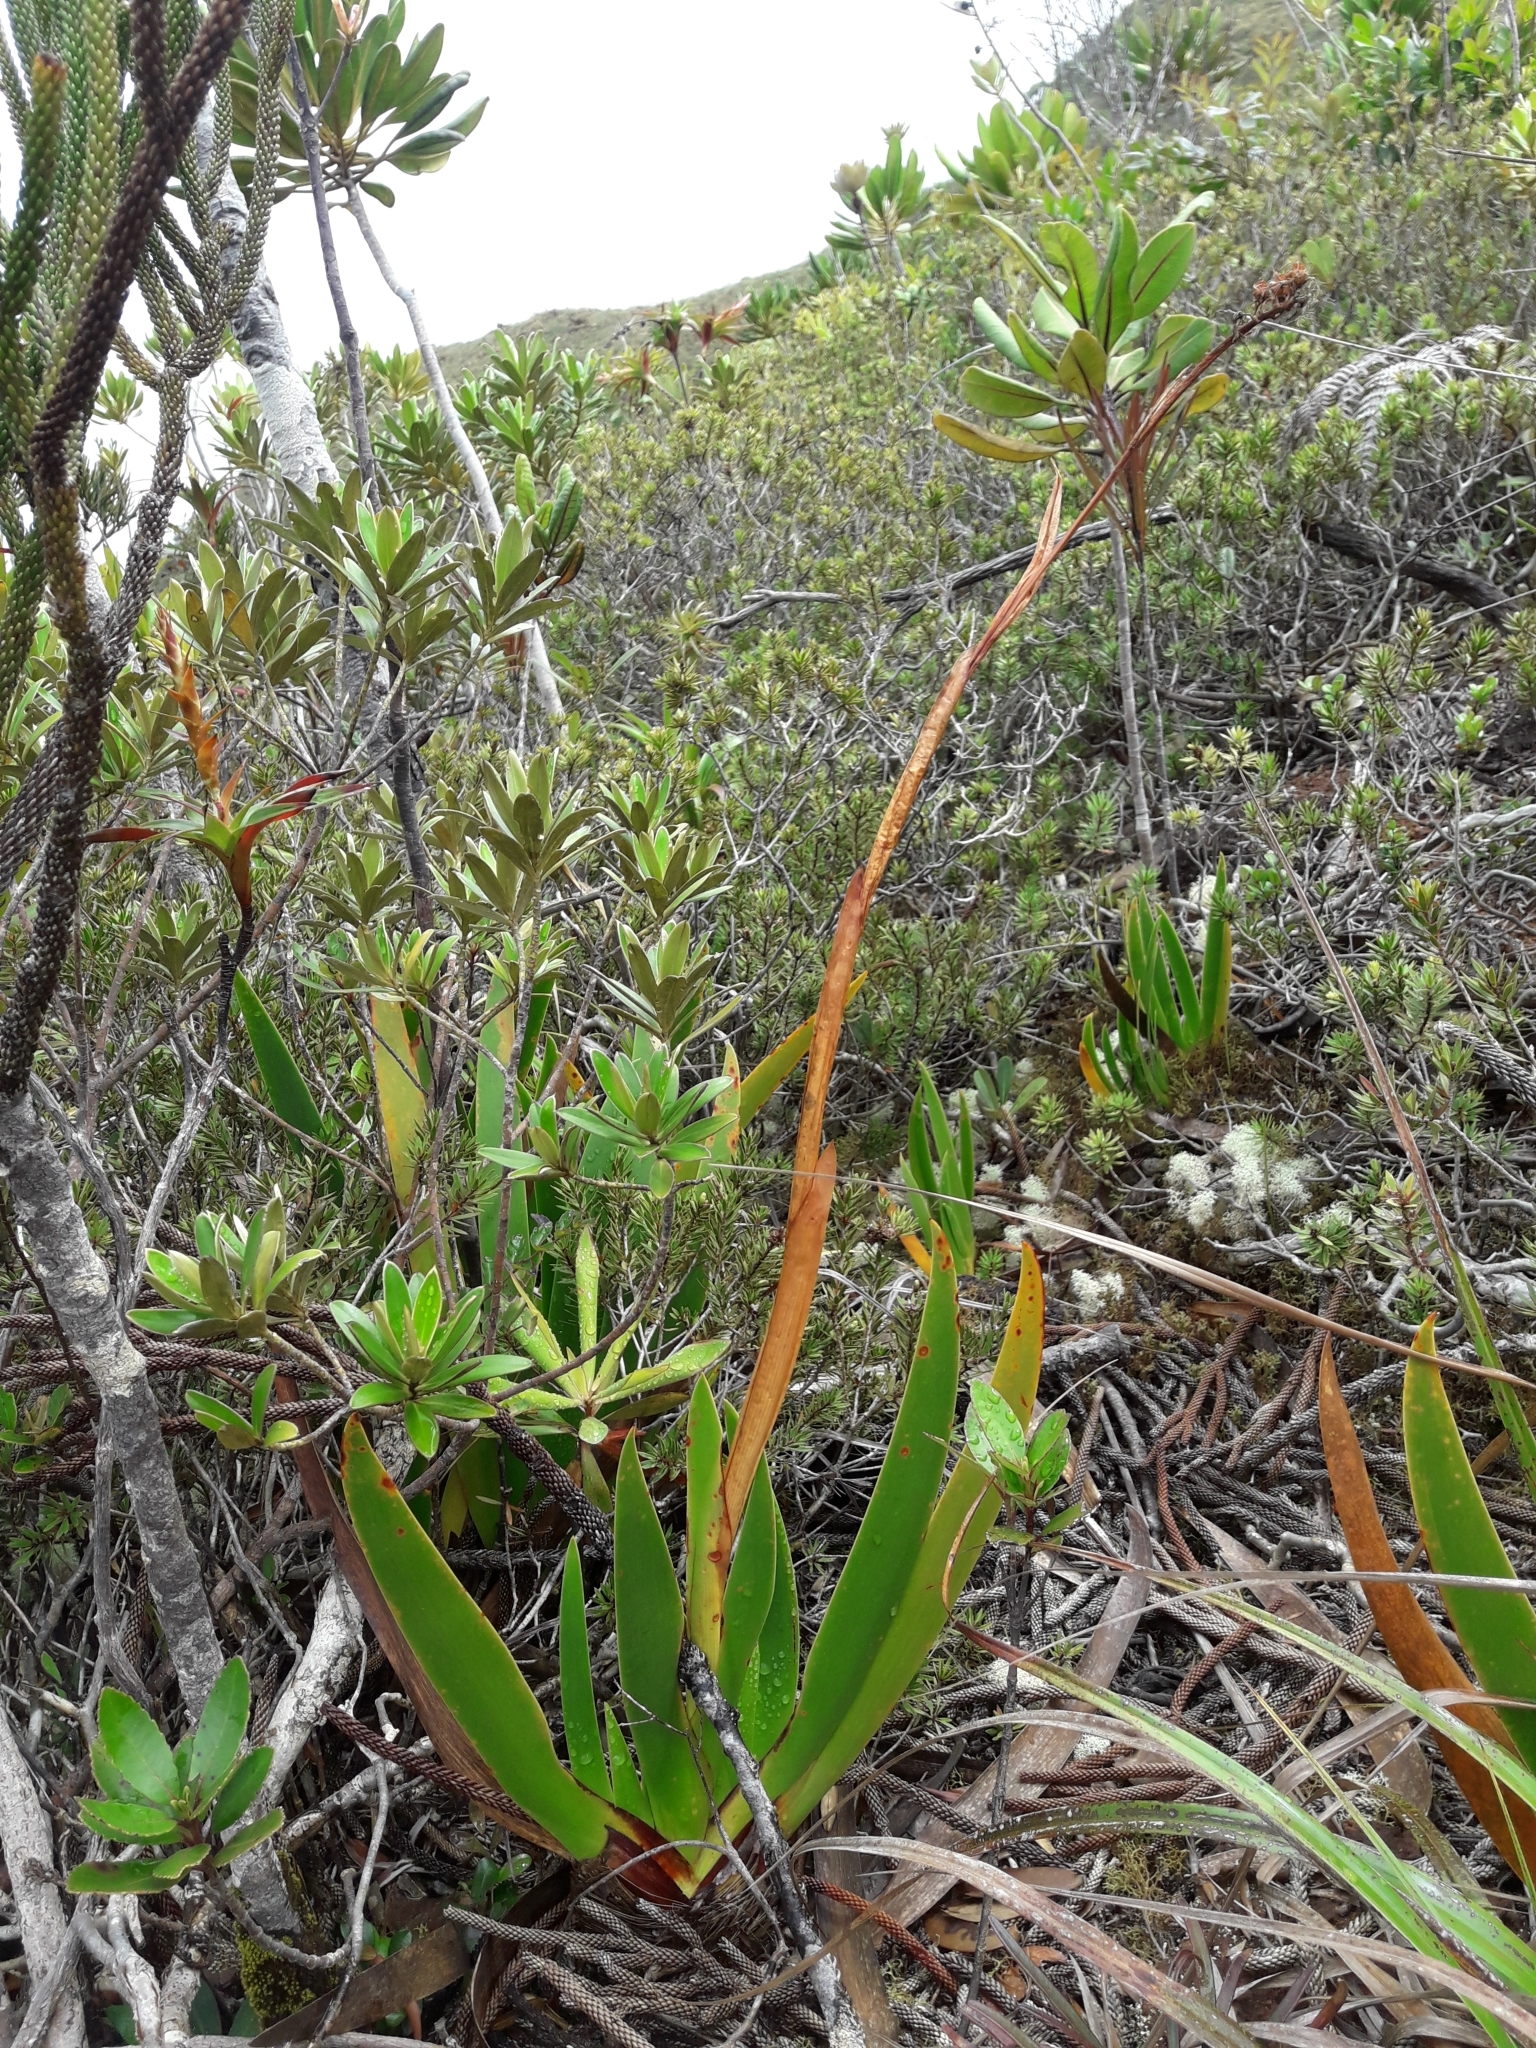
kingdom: Plantae
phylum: Tracheophyta
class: Liliopsida
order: Asparagales
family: Xeronemataceae
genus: Xeronema
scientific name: Xeronema moorei
